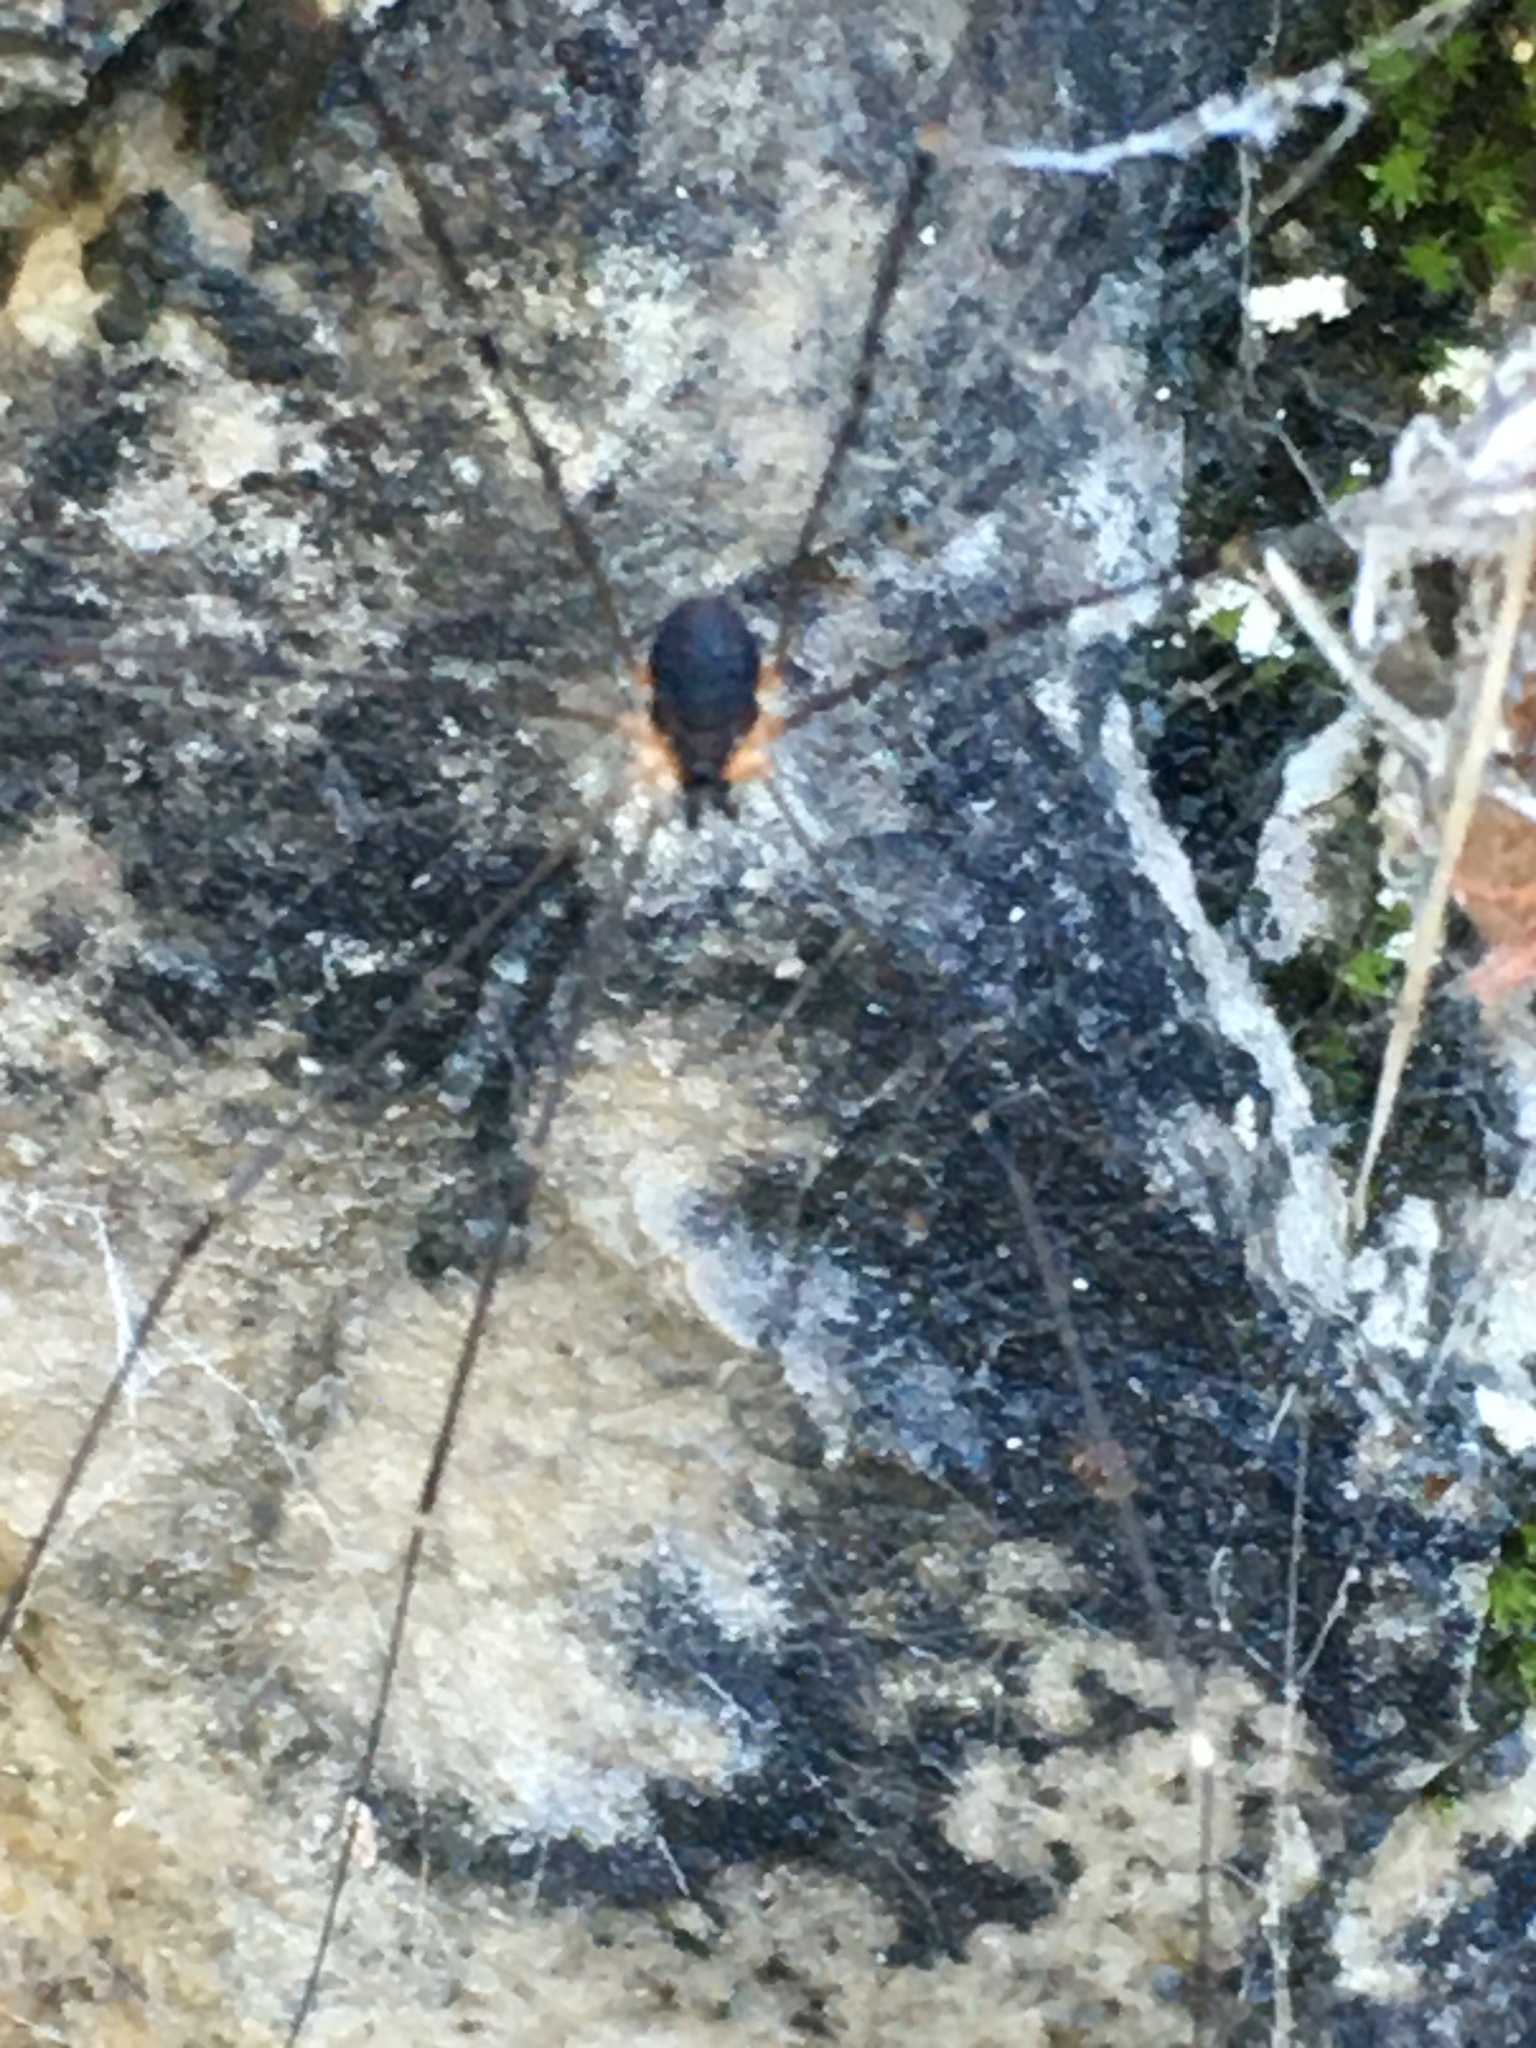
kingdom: Animalia
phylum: Arthropoda
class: Arachnida
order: Opiliones
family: Sclerosomatidae
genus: Leiobunum
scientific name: Leiobunum
